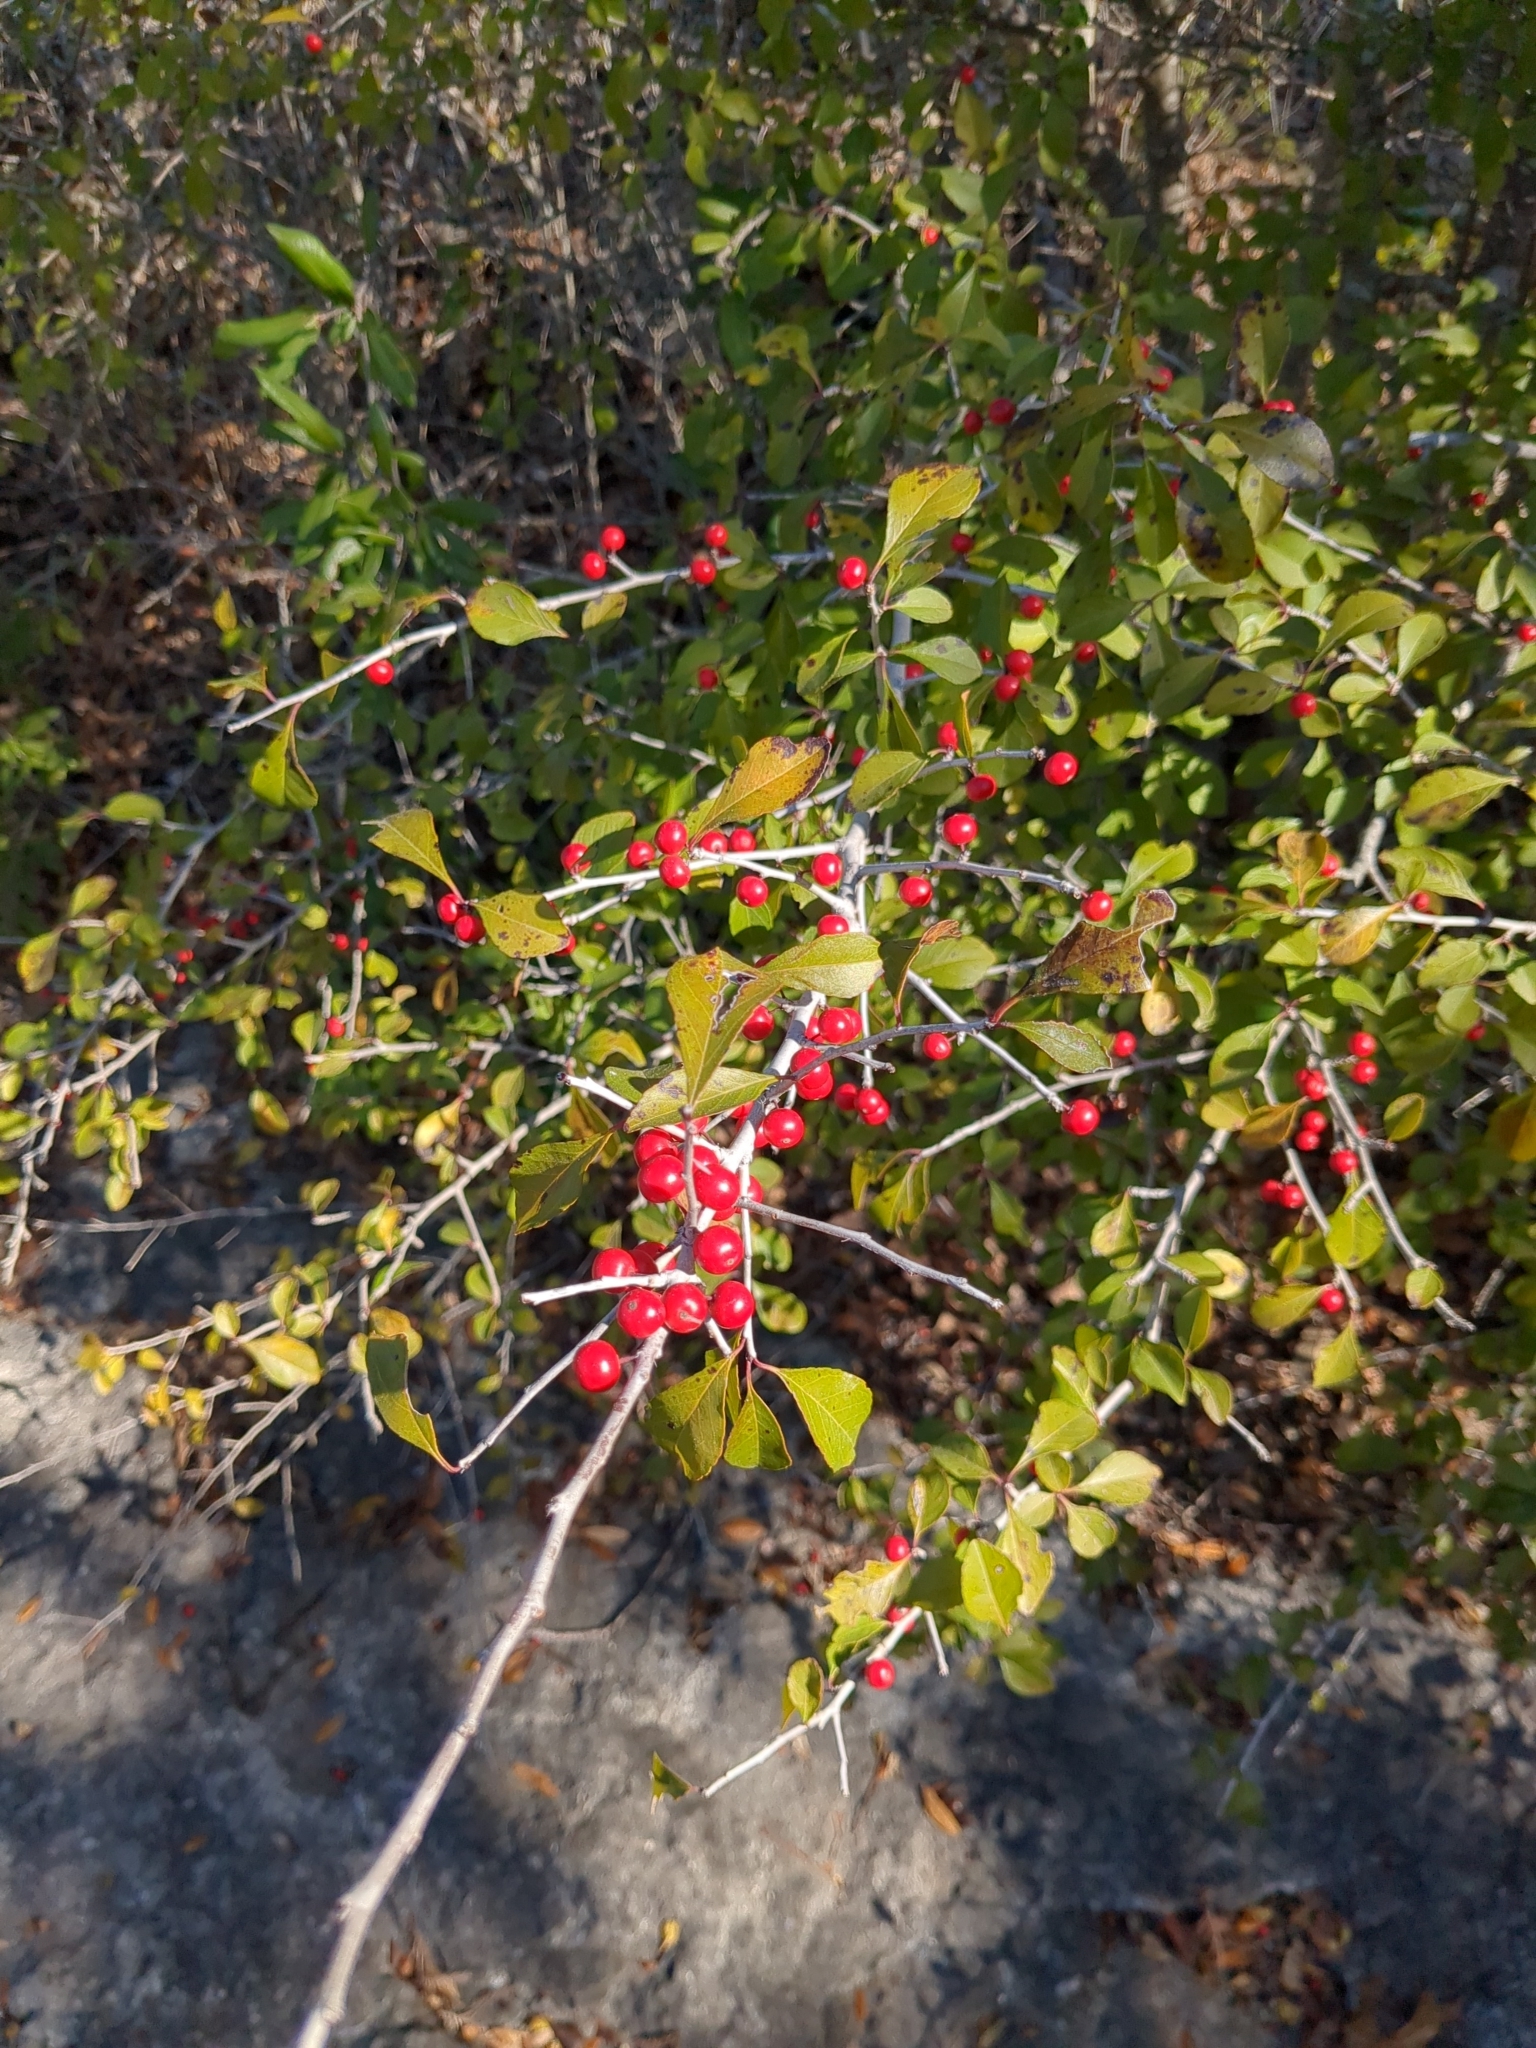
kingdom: Plantae
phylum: Tracheophyta
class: Magnoliopsida
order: Aquifoliales
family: Aquifoliaceae
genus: Ilex
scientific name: Ilex decidua
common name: Possum-haw
